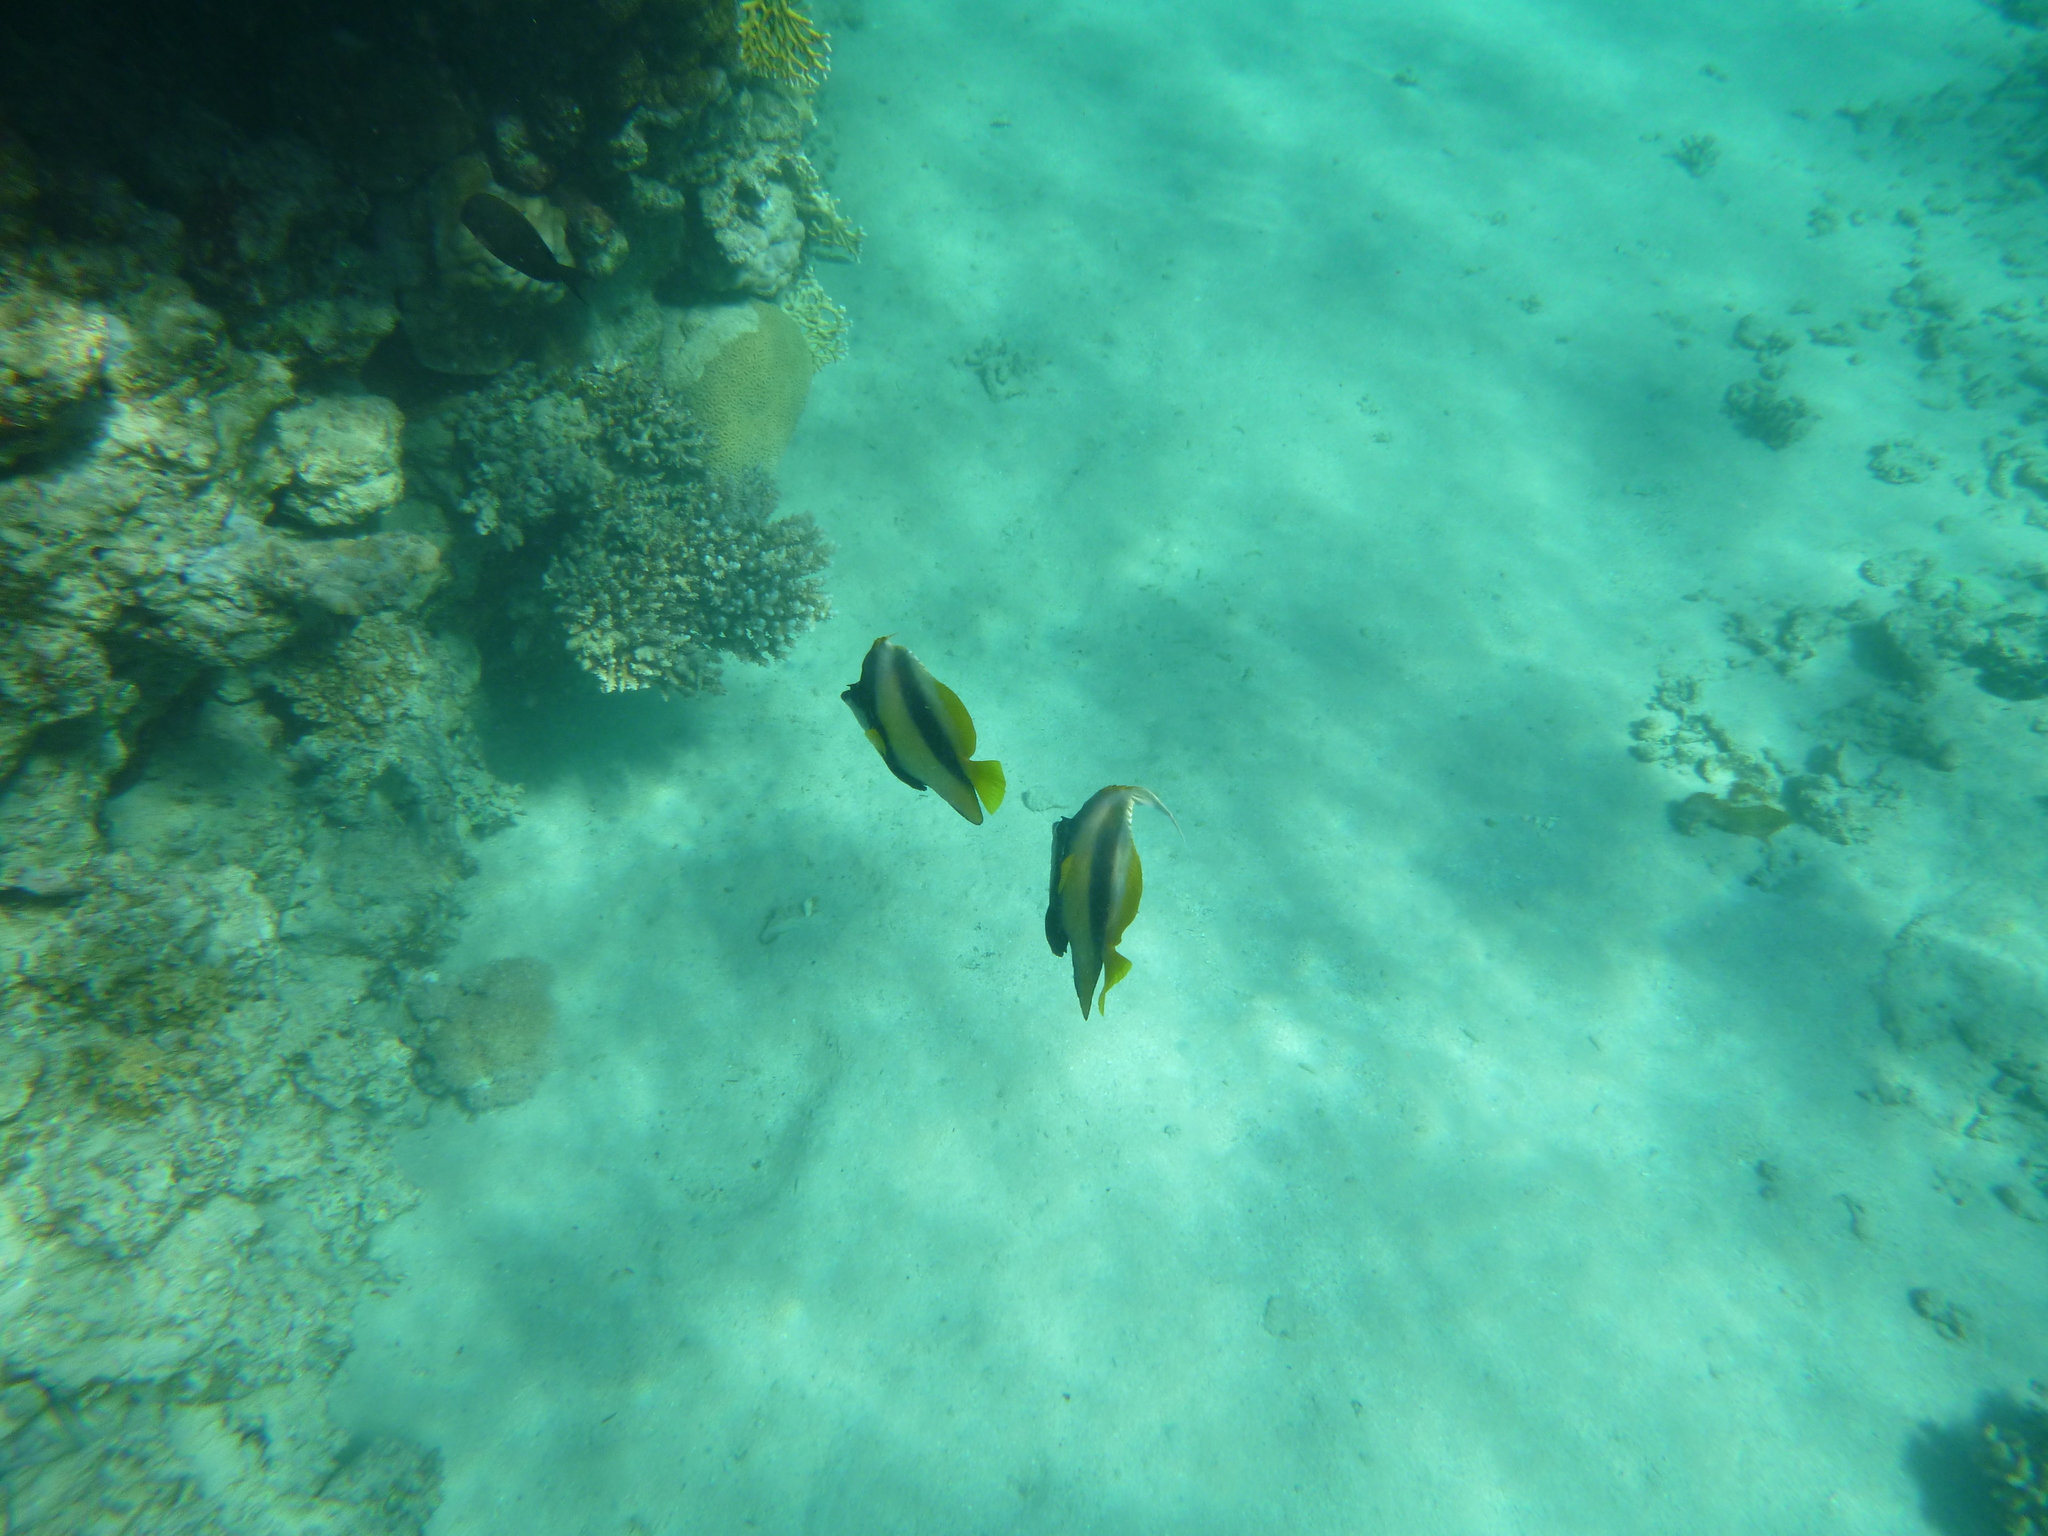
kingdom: Animalia
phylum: Chordata
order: Perciformes
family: Chaetodontidae
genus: Heniochus
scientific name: Heniochus intermedius
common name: Red sea bannerfish
